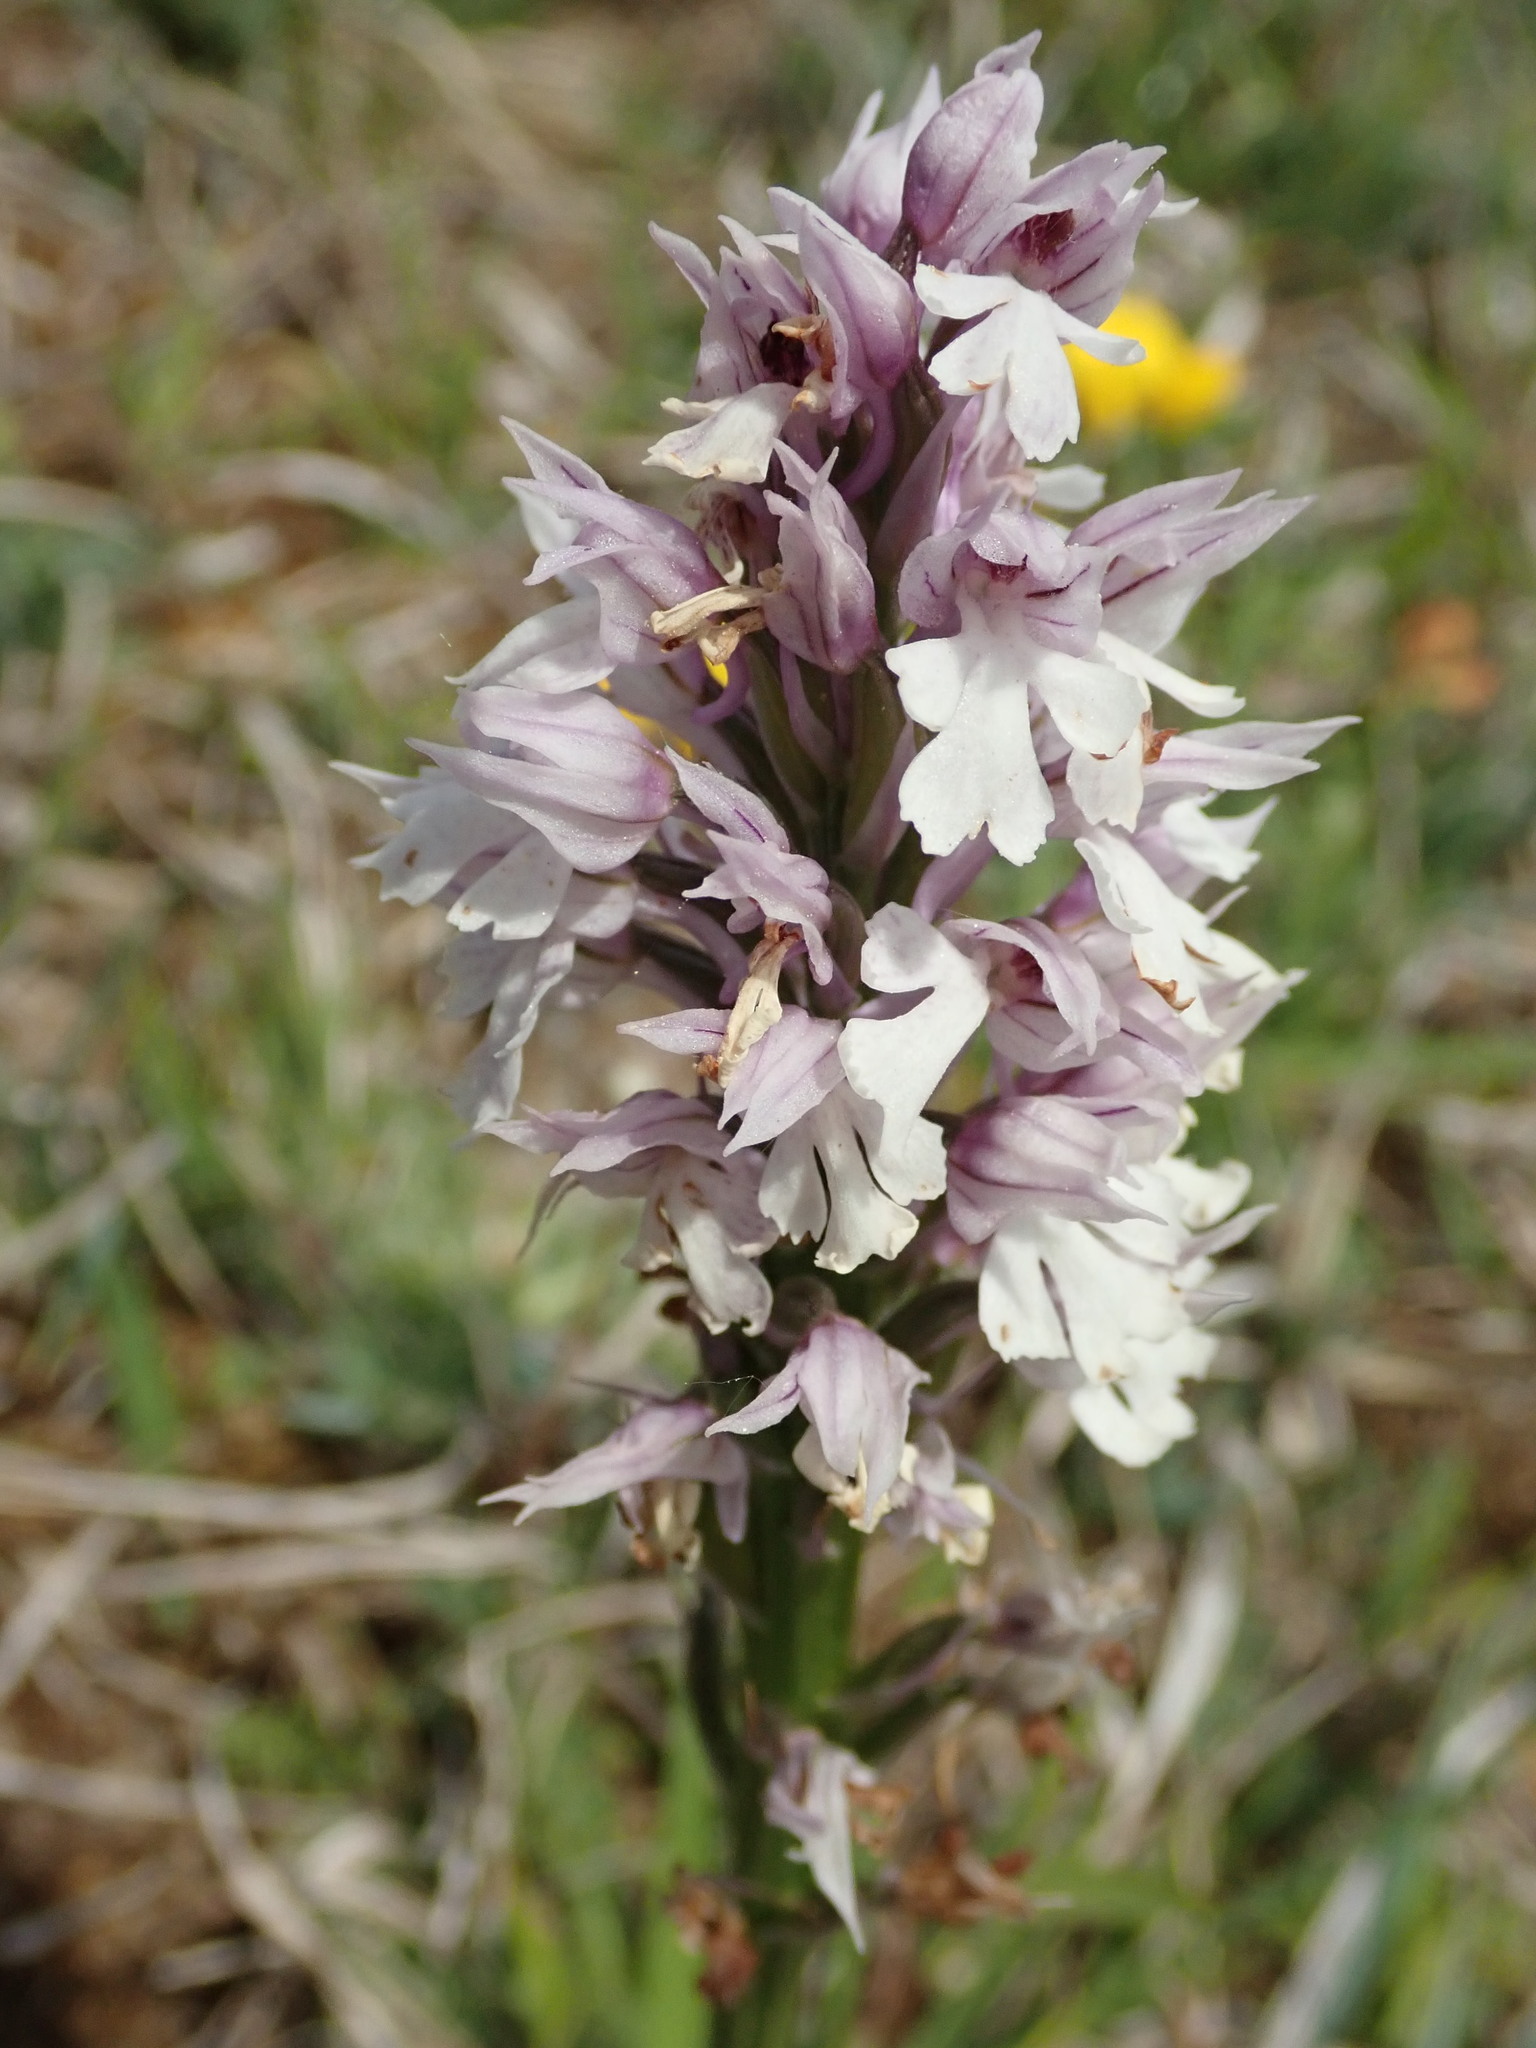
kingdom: Plantae
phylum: Tracheophyta
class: Liliopsida
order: Asparagales
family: Orchidaceae
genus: Neotinea
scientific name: Neotinea tridentata
